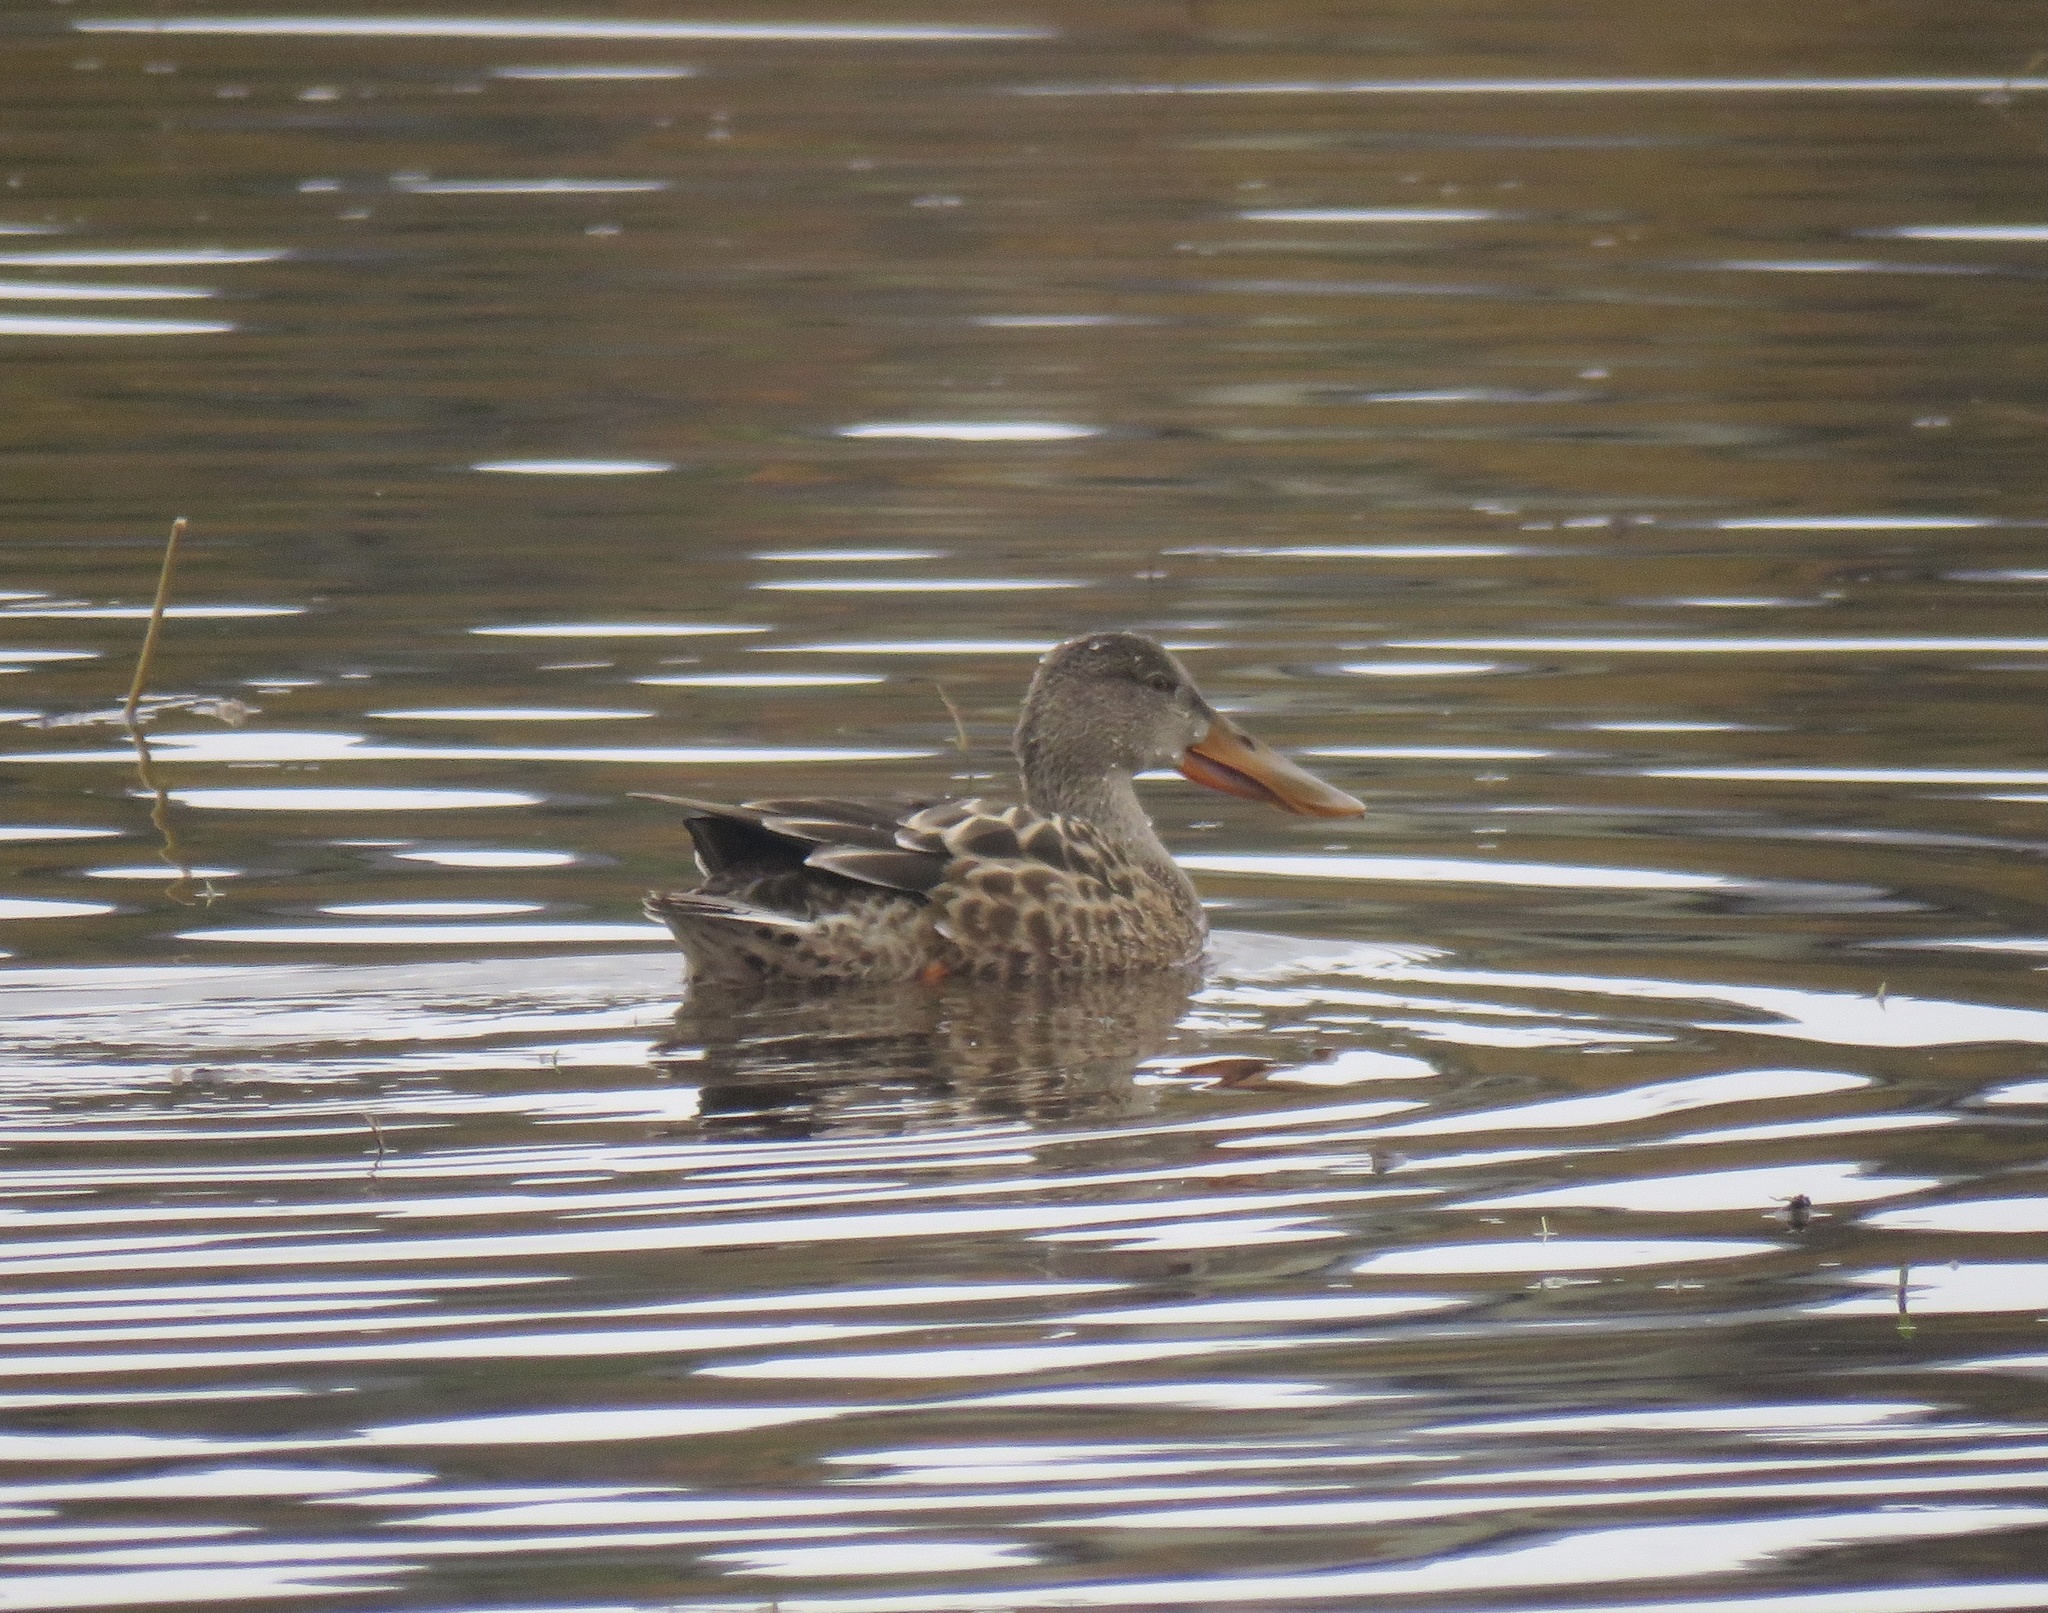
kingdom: Animalia
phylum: Chordata
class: Aves
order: Anseriformes
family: Anatidae
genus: Spatula
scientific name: Spatula clypeata
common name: Northern shoveler
